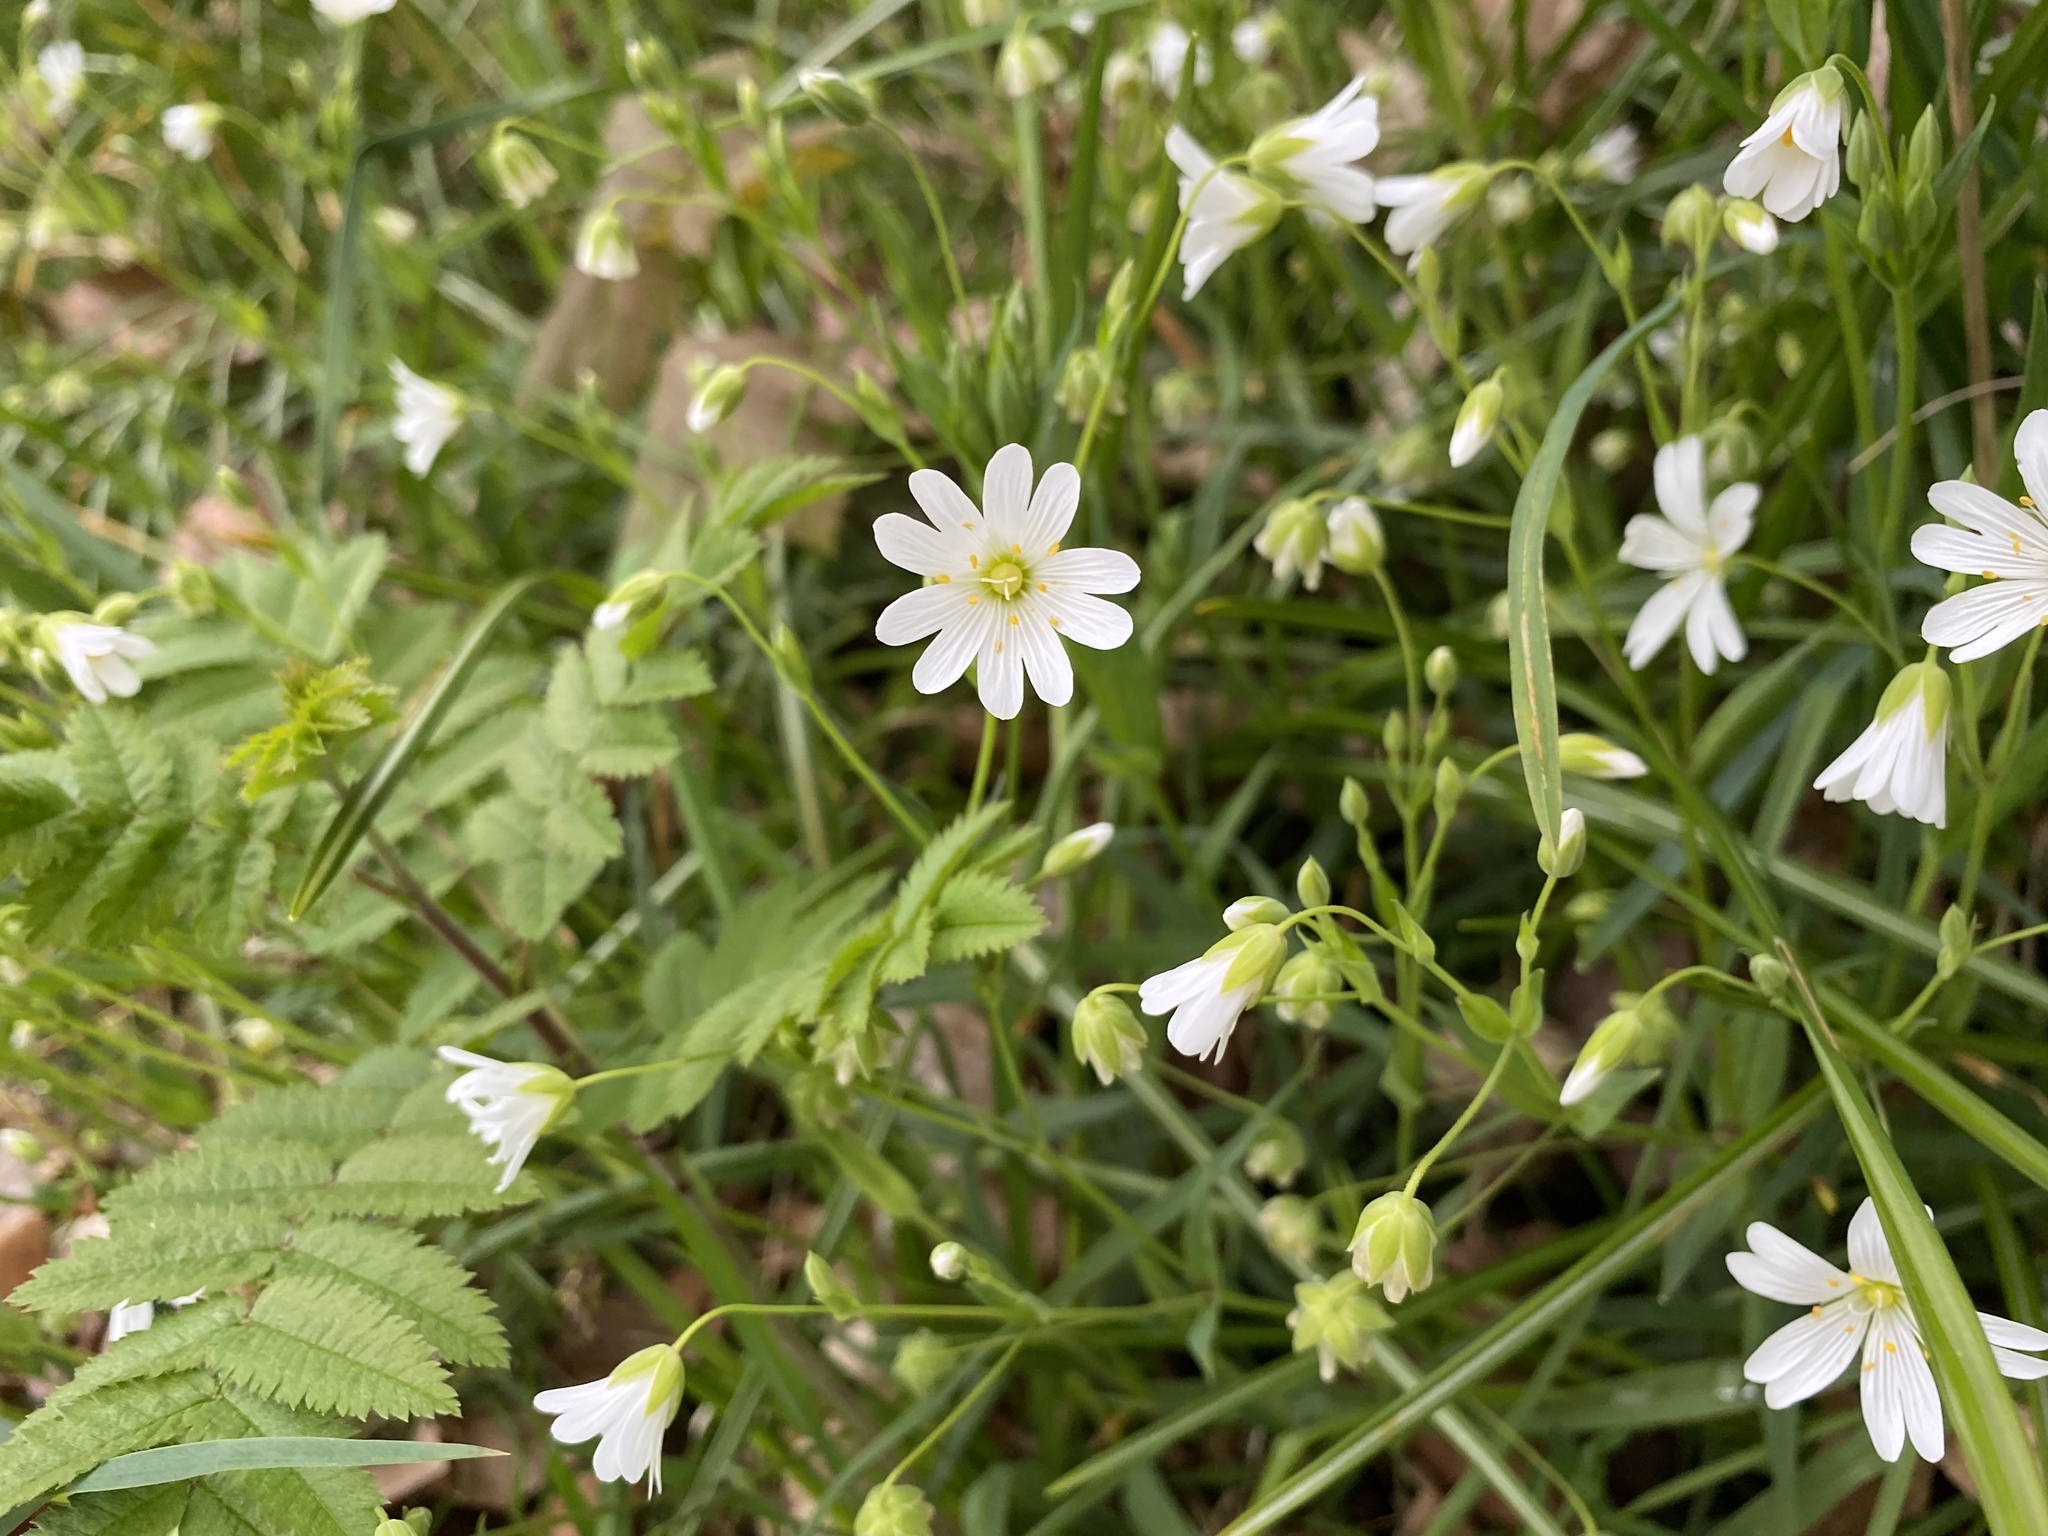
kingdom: Plantae
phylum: Tracheophyta
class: Magnoliopsida
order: Caryophyllales
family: Caryophyllaceae
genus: Rabelera
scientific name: Rabelera holostea
